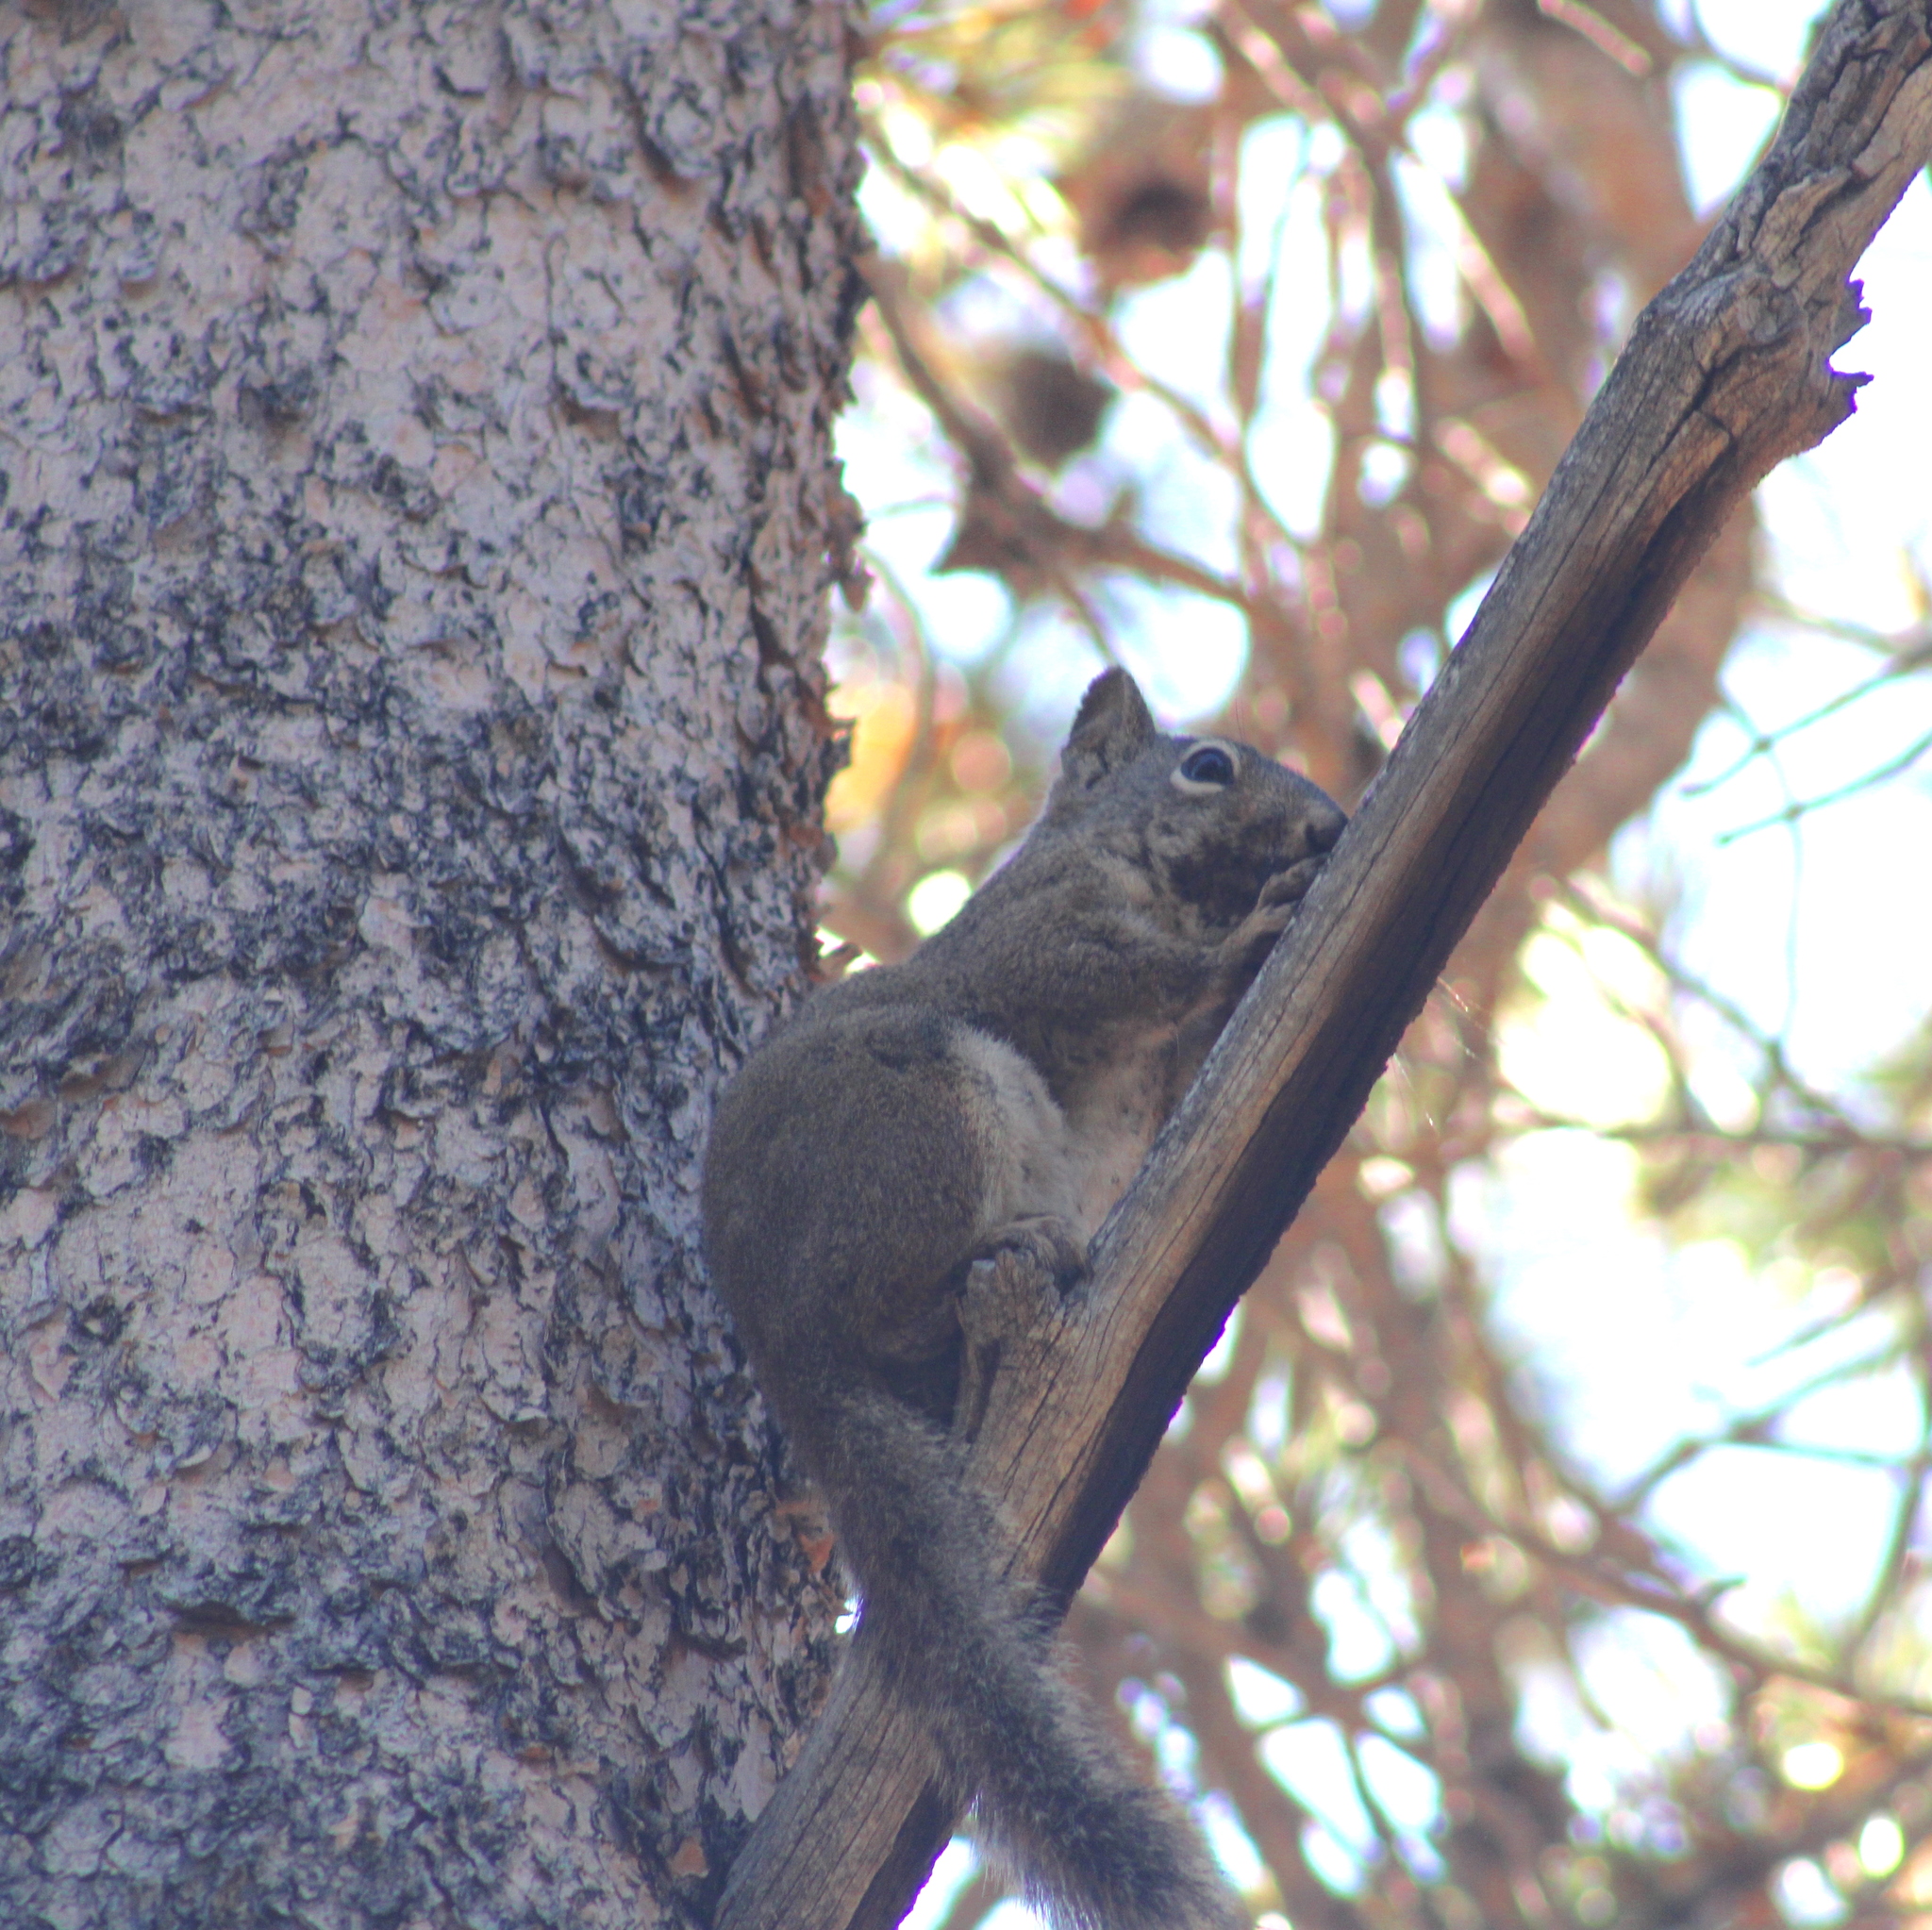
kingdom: Animalia
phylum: Chordata
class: Mammalia
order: Rodentia
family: Sciuridae
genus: Tamiasciurus
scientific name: Tamiasciurus hudsonicus
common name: Red squirrel
